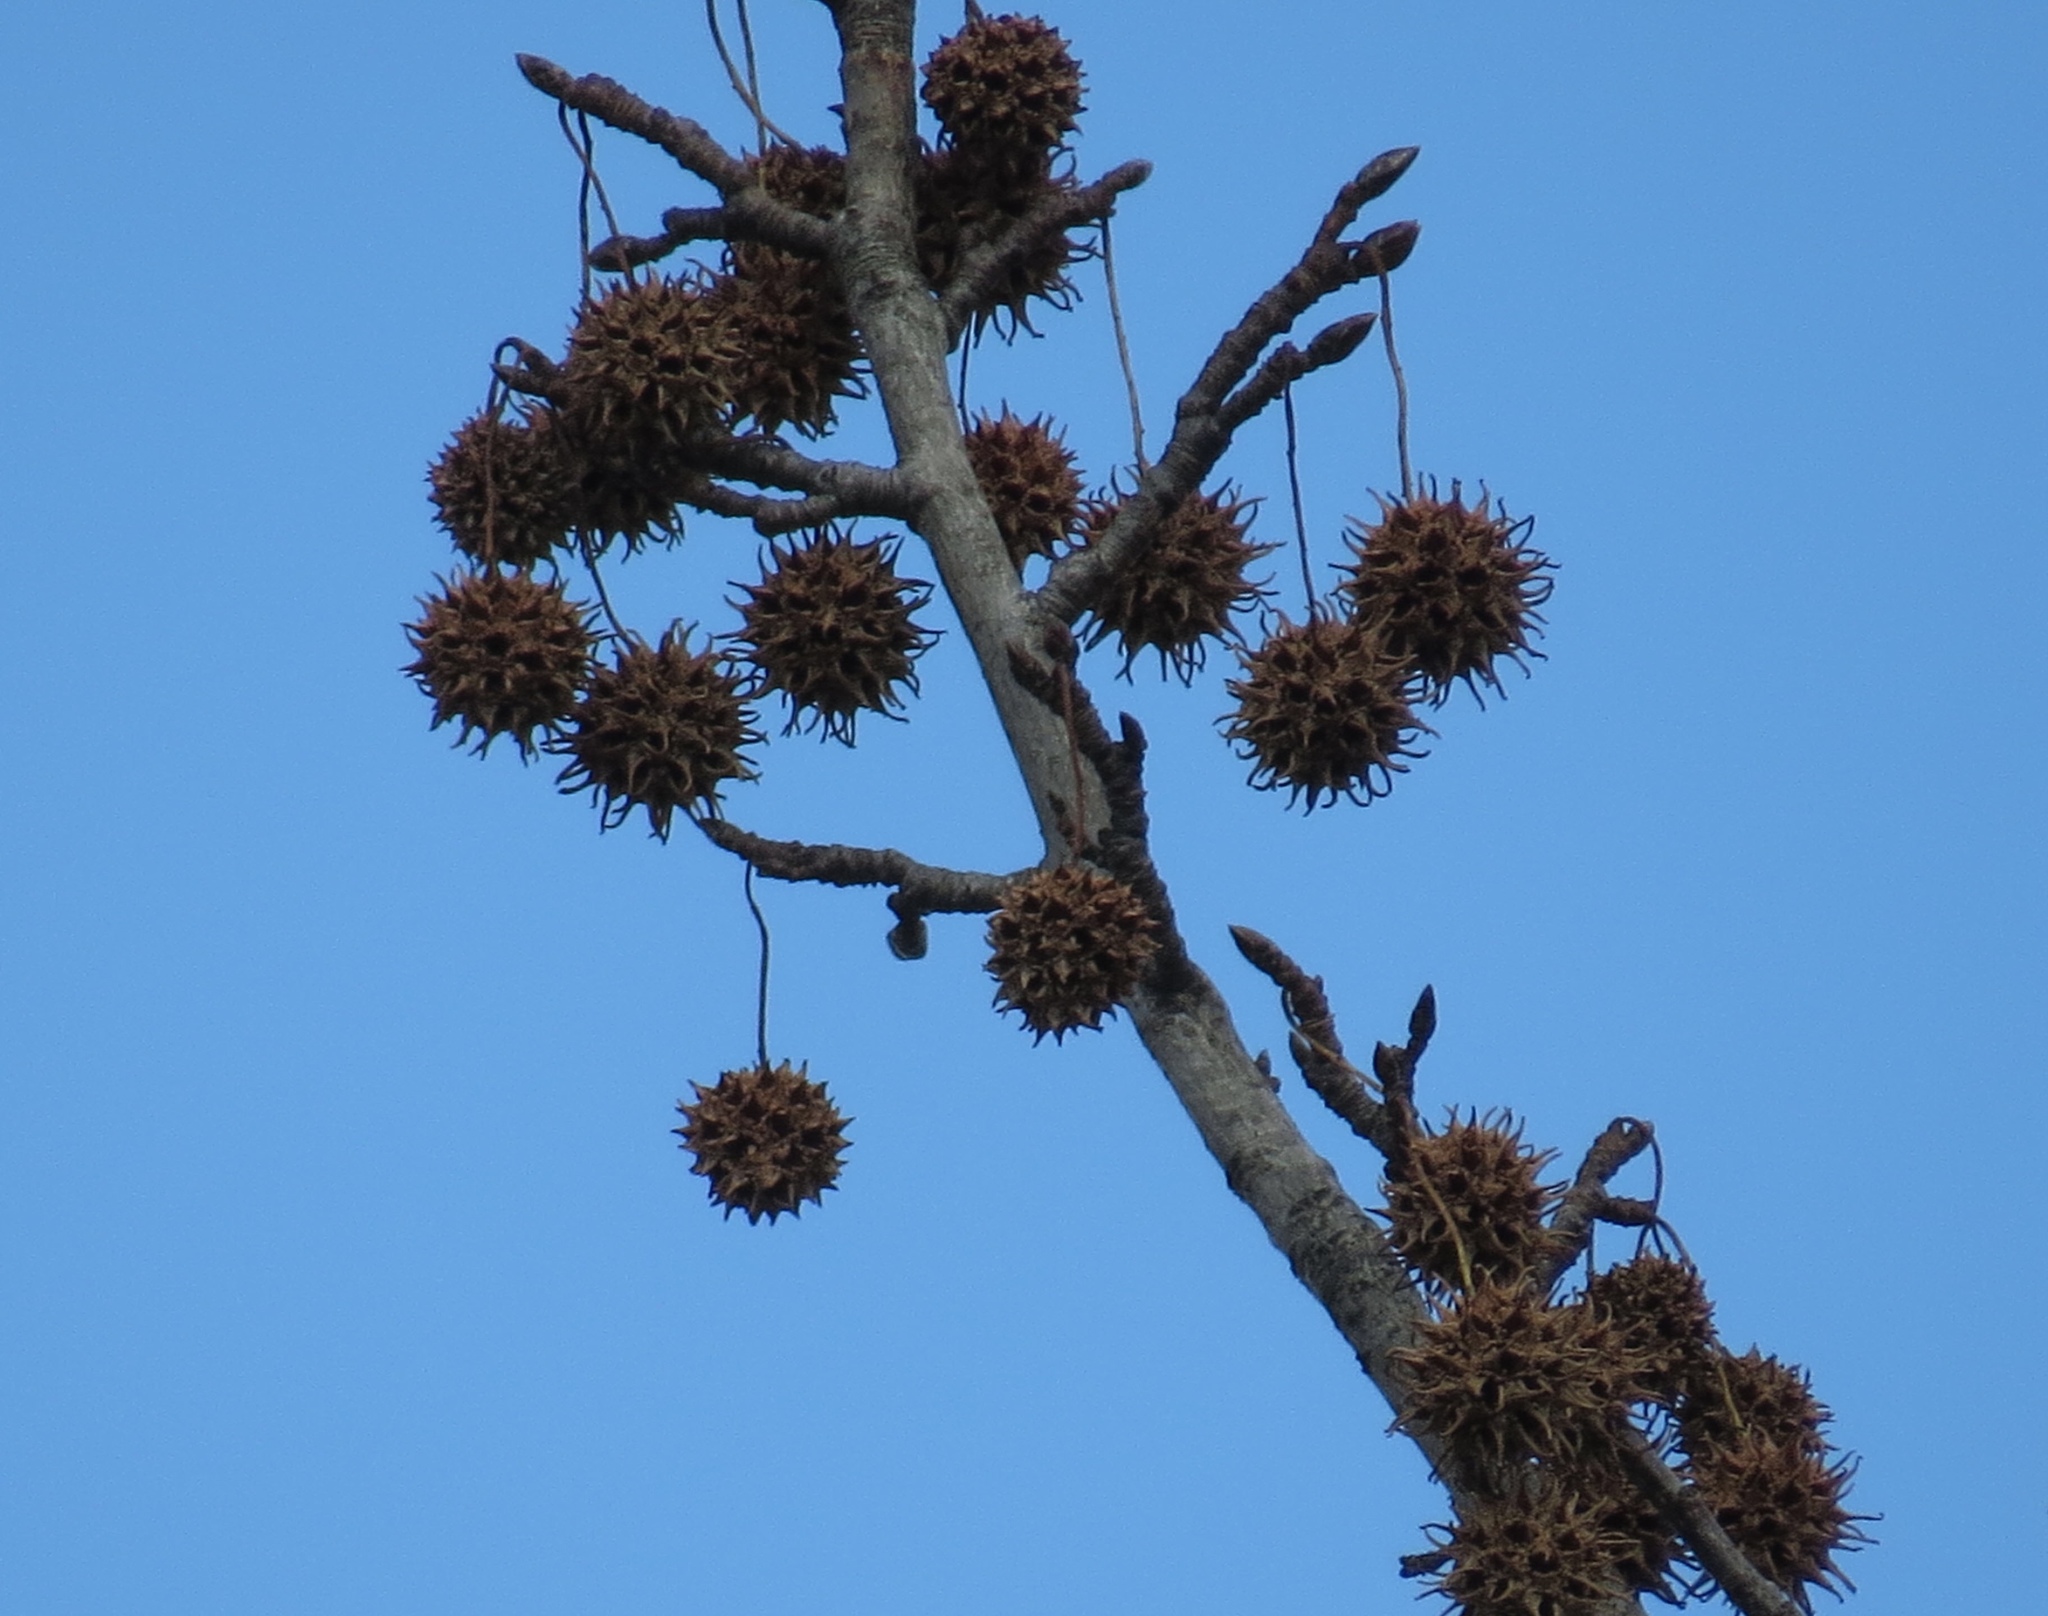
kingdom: Plantae
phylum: Tracheophyta
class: Magnoliopsida
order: Saxifragales
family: Altingiaceae
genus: Liquidambar
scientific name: Liquidambar styraciflua
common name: Sweet gum
